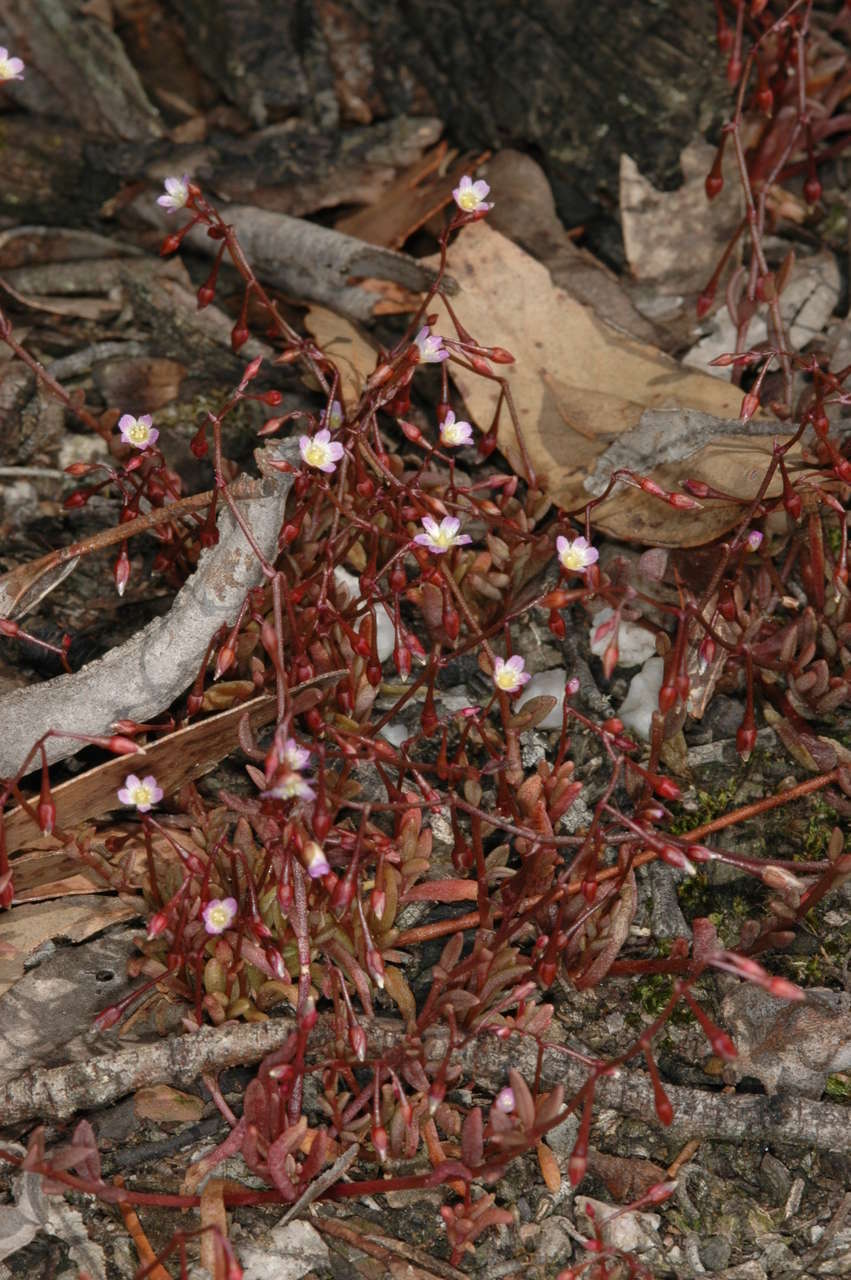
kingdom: Plantae
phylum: Tracheophyta
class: Magnoliopsida
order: Caryophyllales
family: Montiaceae
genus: Rumicastrum
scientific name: Rumicastrum calyptratum
